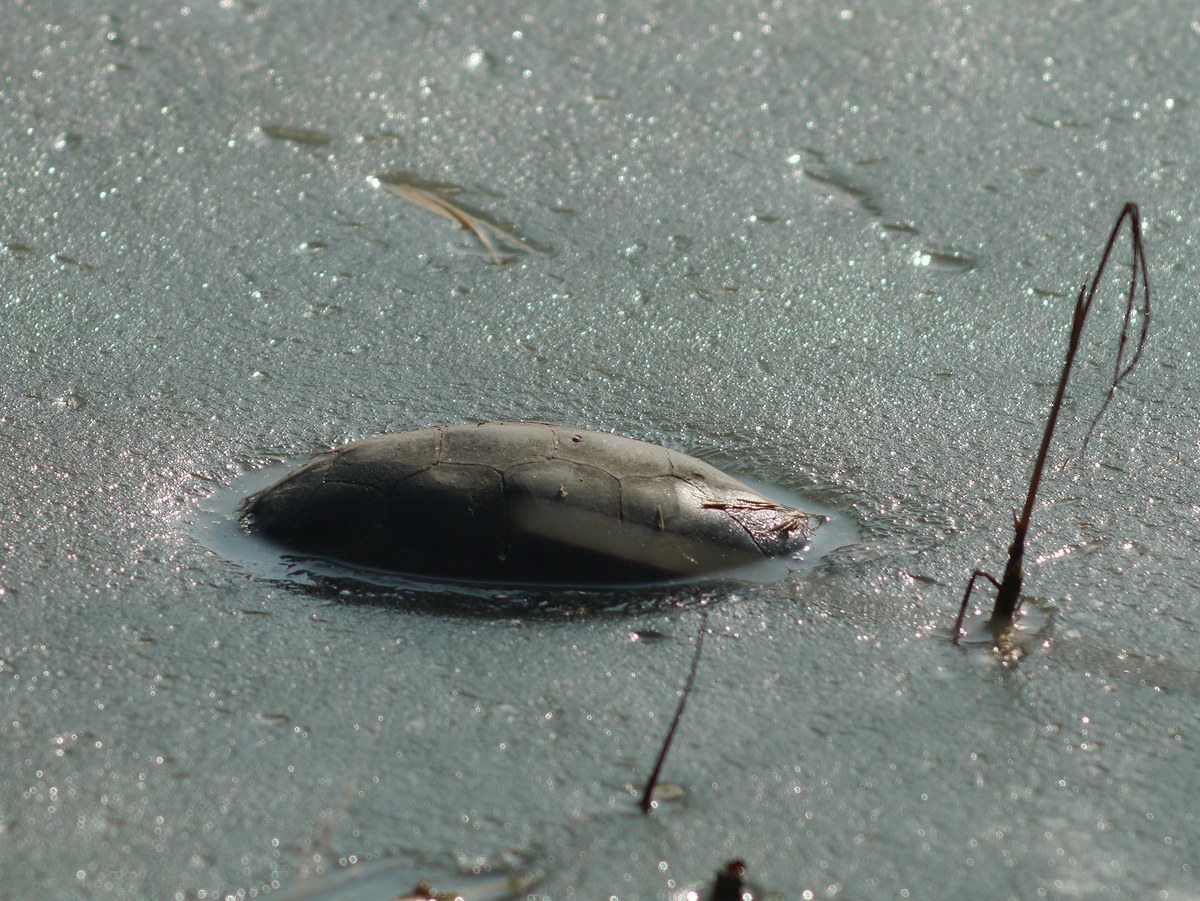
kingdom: Animalia
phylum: Chordata
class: Testudines
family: Emydidae
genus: Emys
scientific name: Emys orbicularis
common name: European pond turtle
